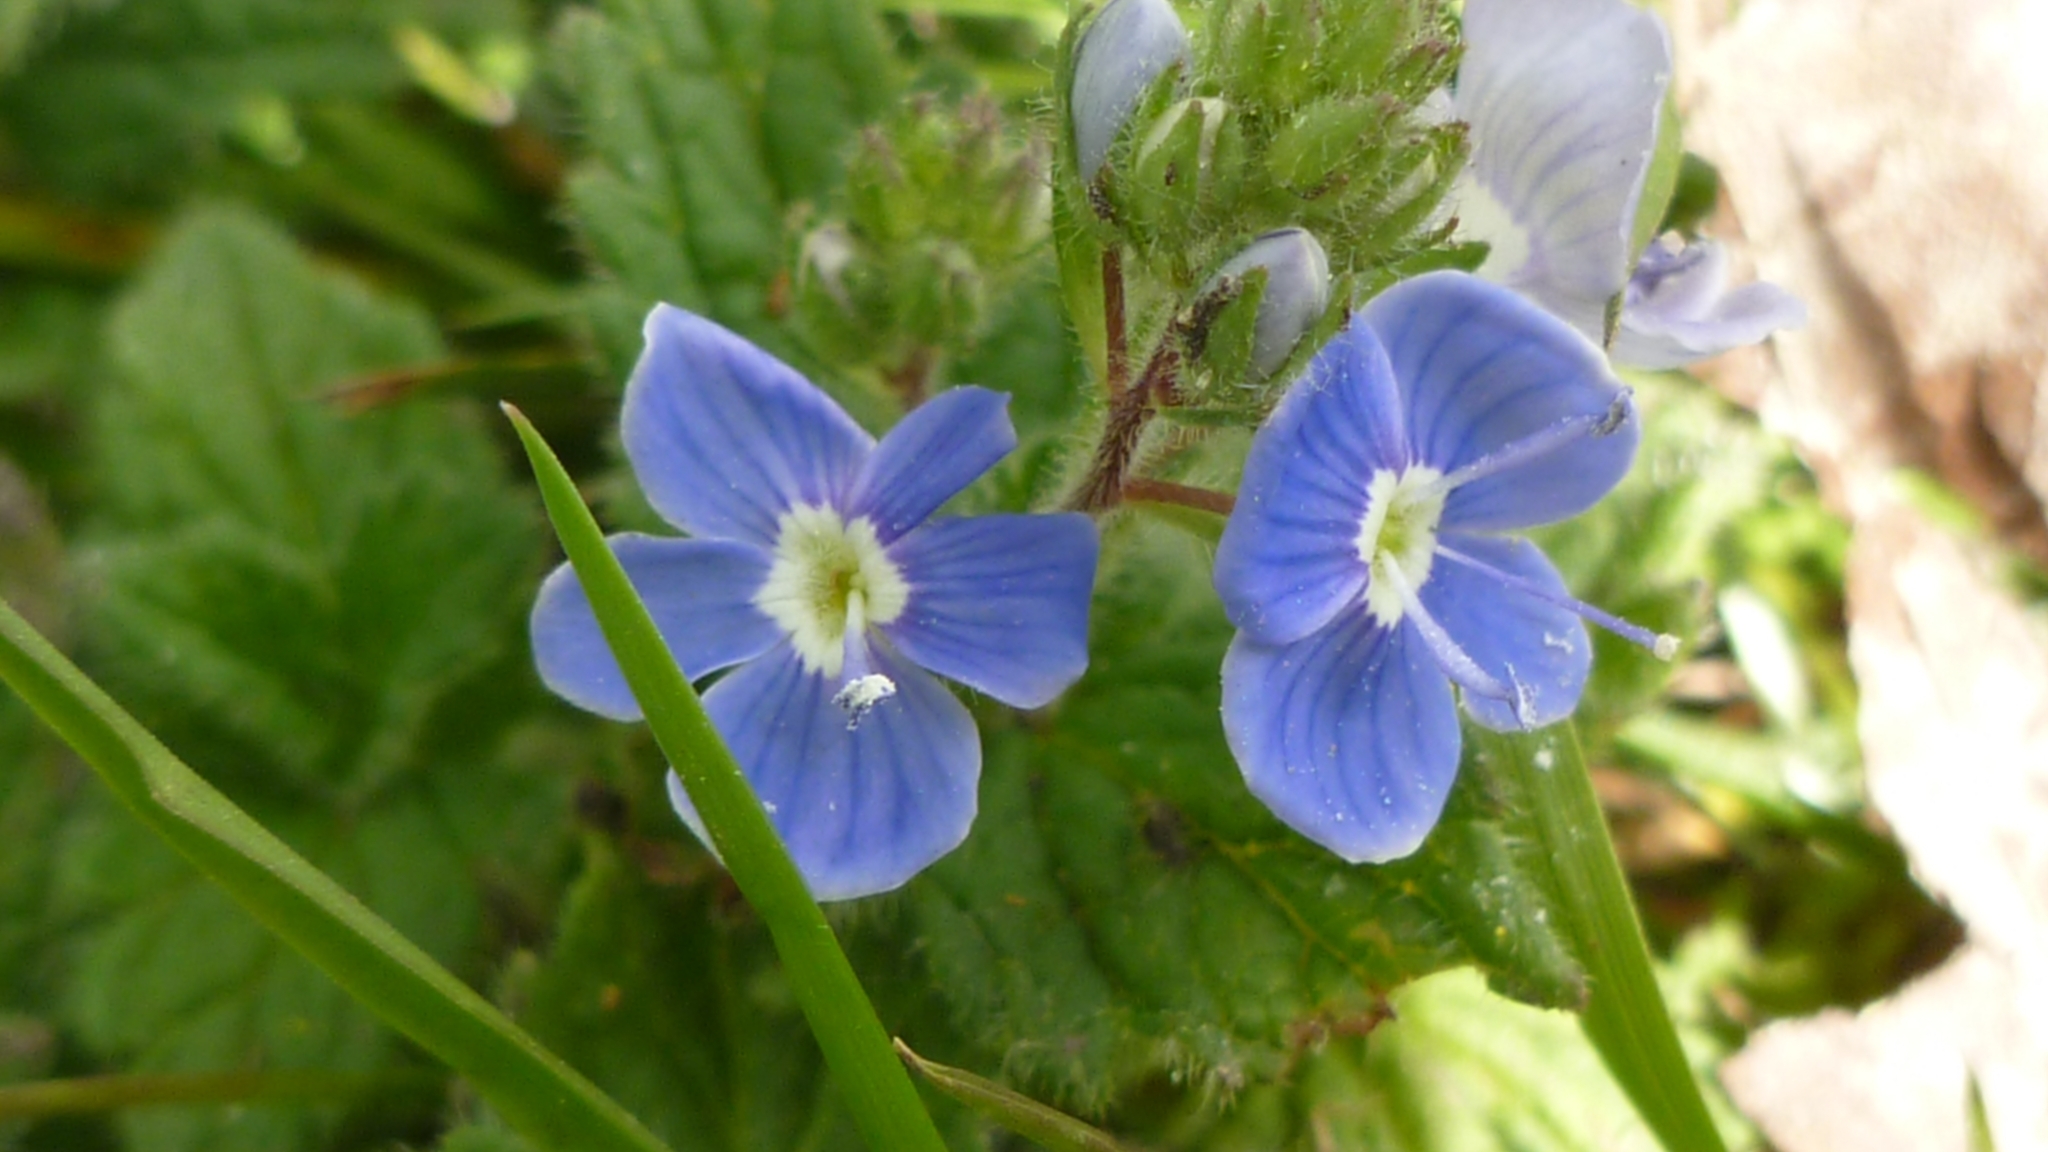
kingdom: Plantae
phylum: Tracheophyta
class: Magnoliopsida
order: Lamiales
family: Plantaginaceae
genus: Veronica
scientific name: Veronica chamaedrys
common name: Germander speedwell
